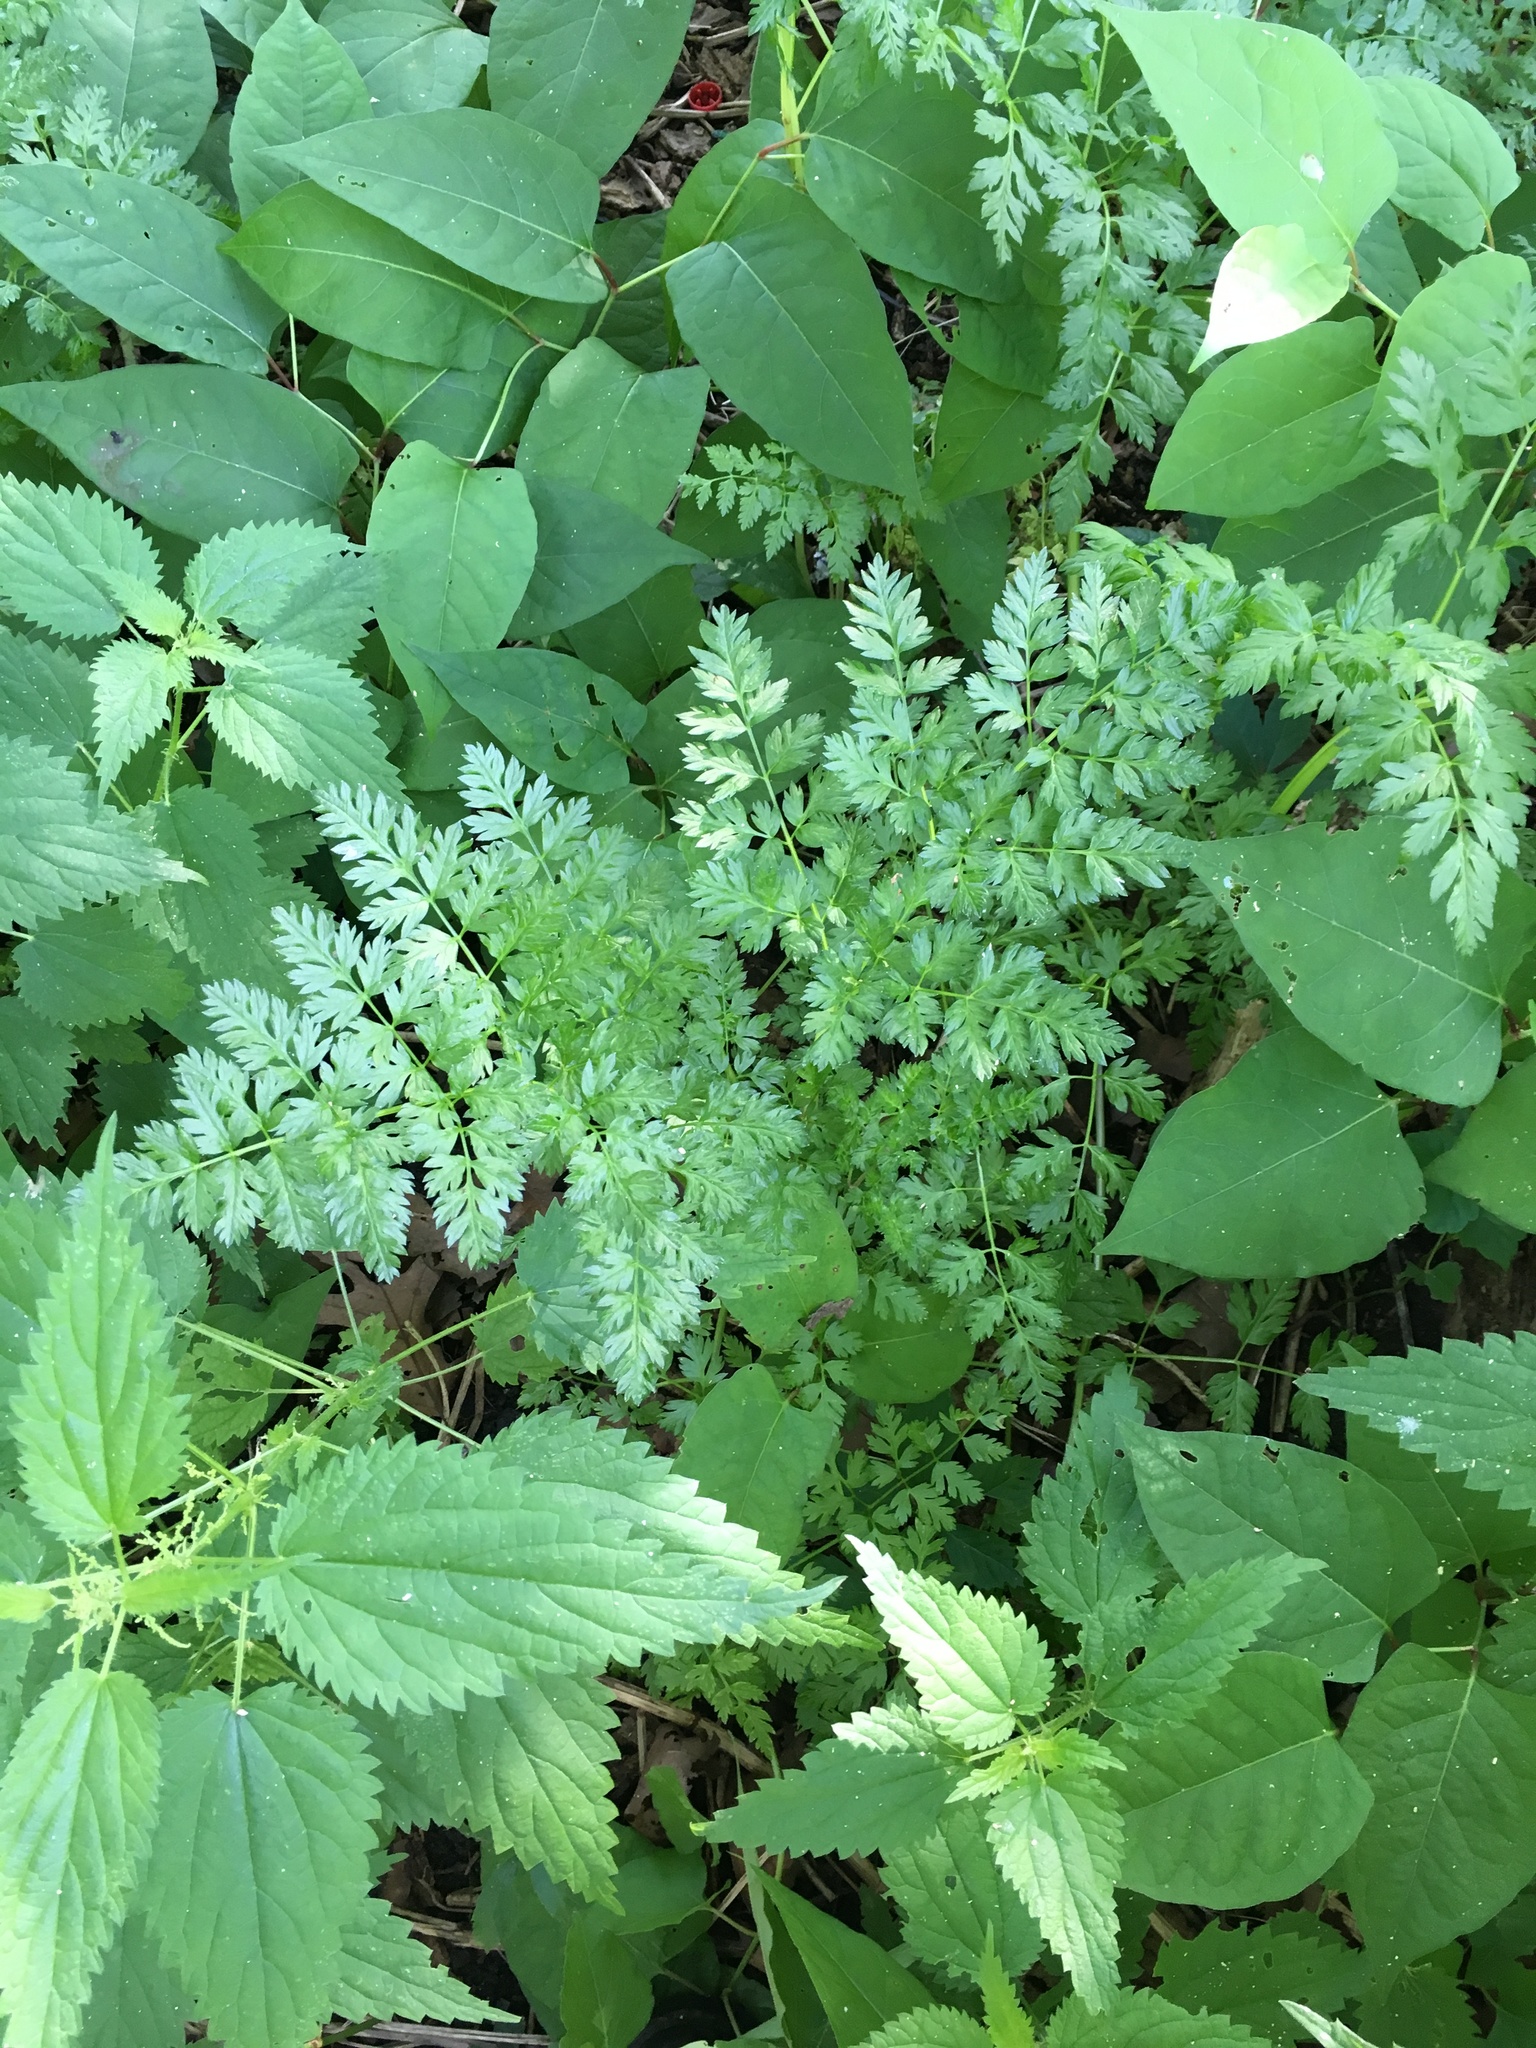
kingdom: Plantae
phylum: Tracheophyta
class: Magnoliopsida
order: Apiales
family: Apiaceae
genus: Anthriscus
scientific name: Anthriscus sylvestris
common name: Cow parsley
